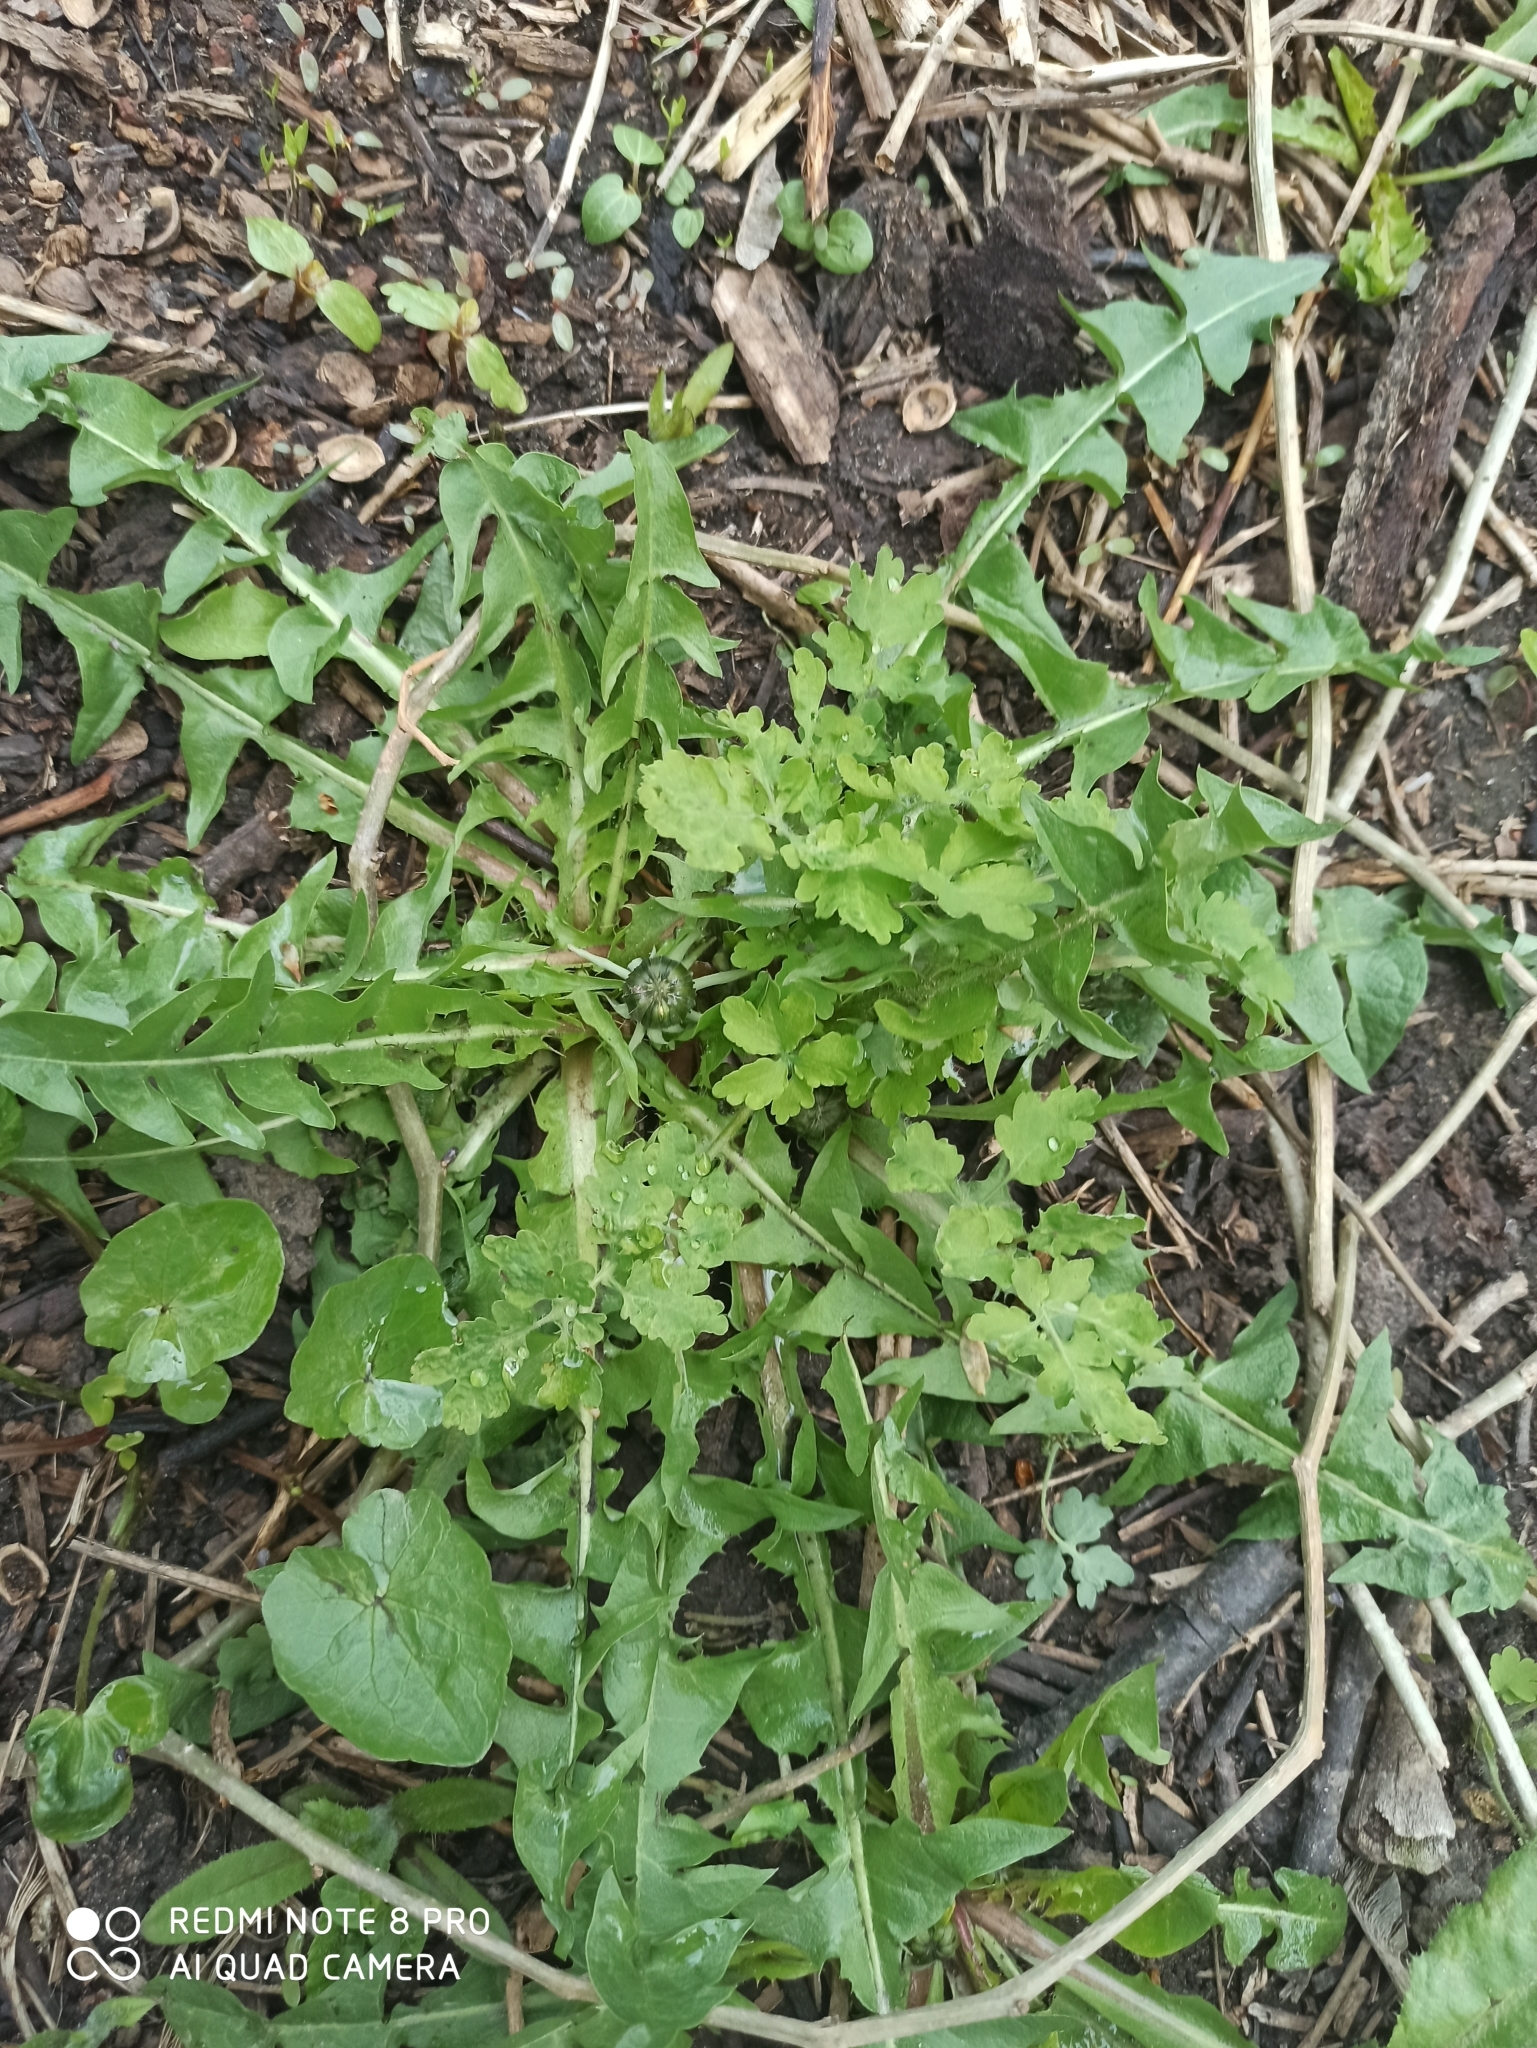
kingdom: Plantae
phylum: Tracheophyta
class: Magnoliopsida
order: Asterales
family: Asteraceae
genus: Taraxacum
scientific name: Taraxacum officinale
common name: Common dandelion
